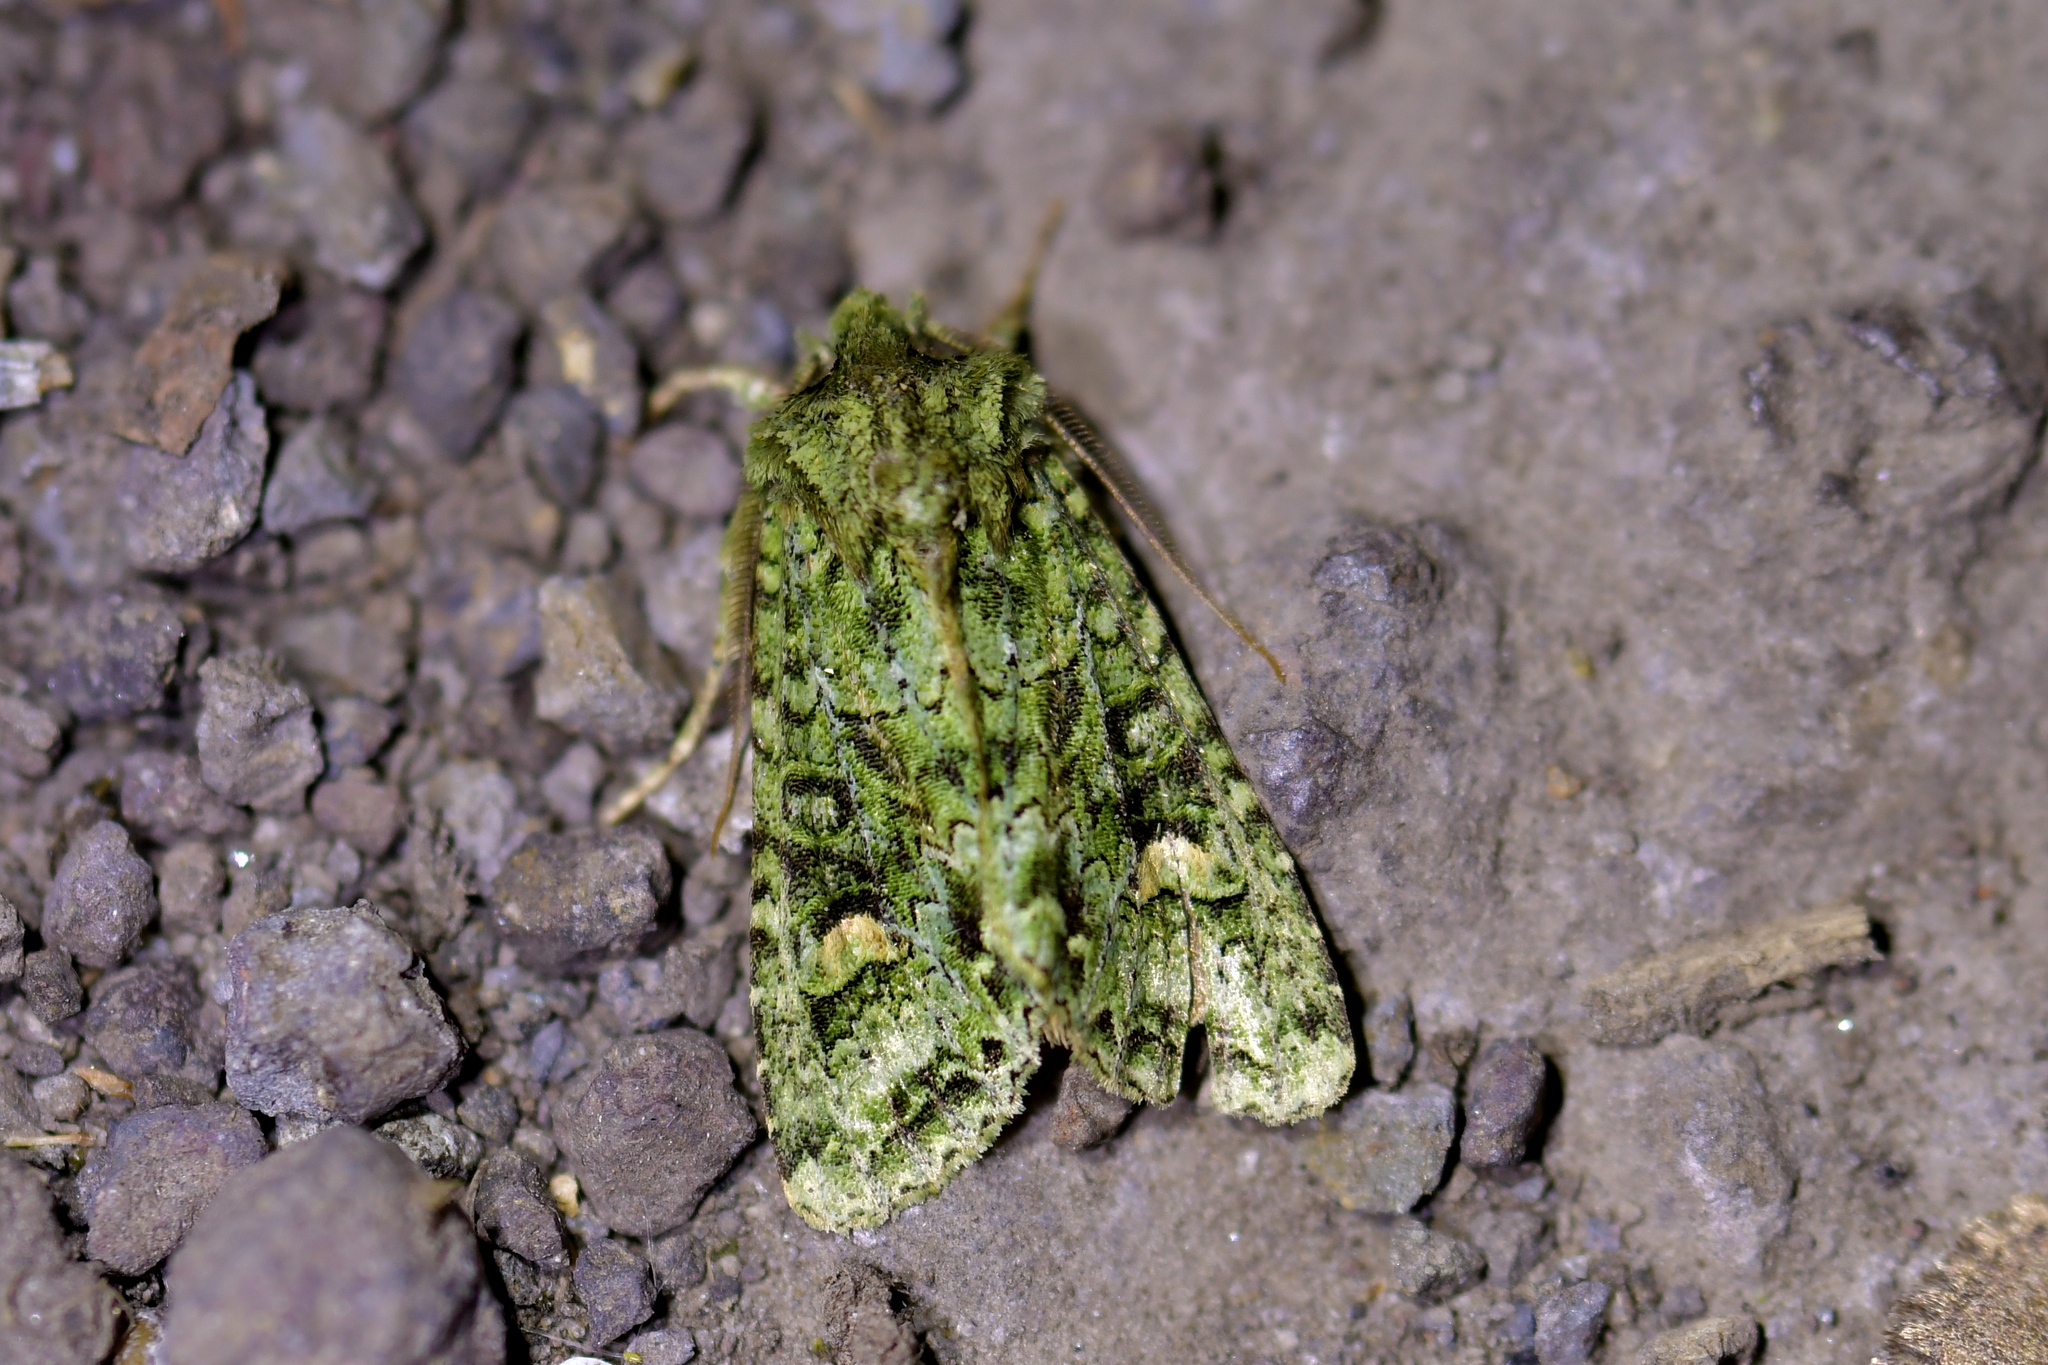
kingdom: Animalia
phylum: Arthropoda
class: Insecta
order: Lepidoptera
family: Noctuidae
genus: Ichneutica
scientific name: Ichneutica
